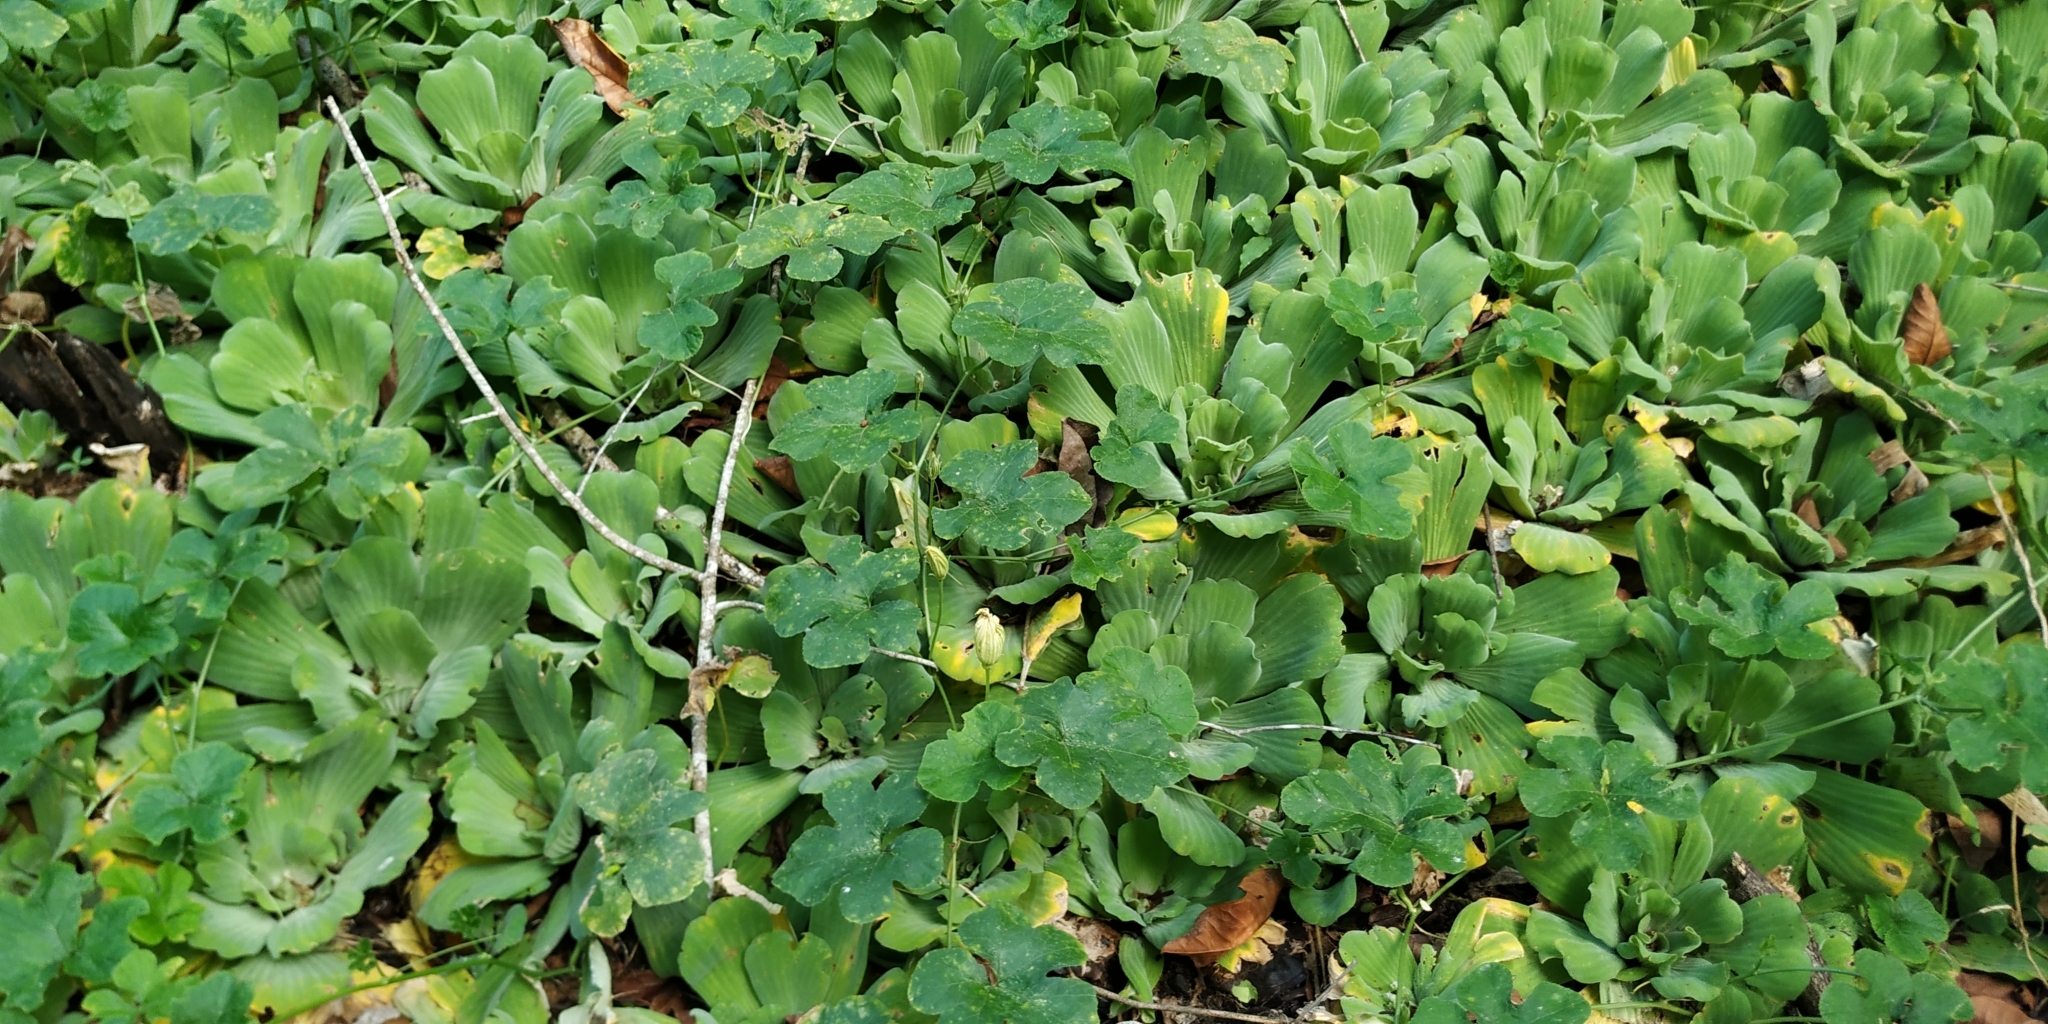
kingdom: Plantae
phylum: Tracheophyta
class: Liliopsida
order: Alismatales
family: Araceae
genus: Pistia
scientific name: Pistia stratiotes
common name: Water lettuce
